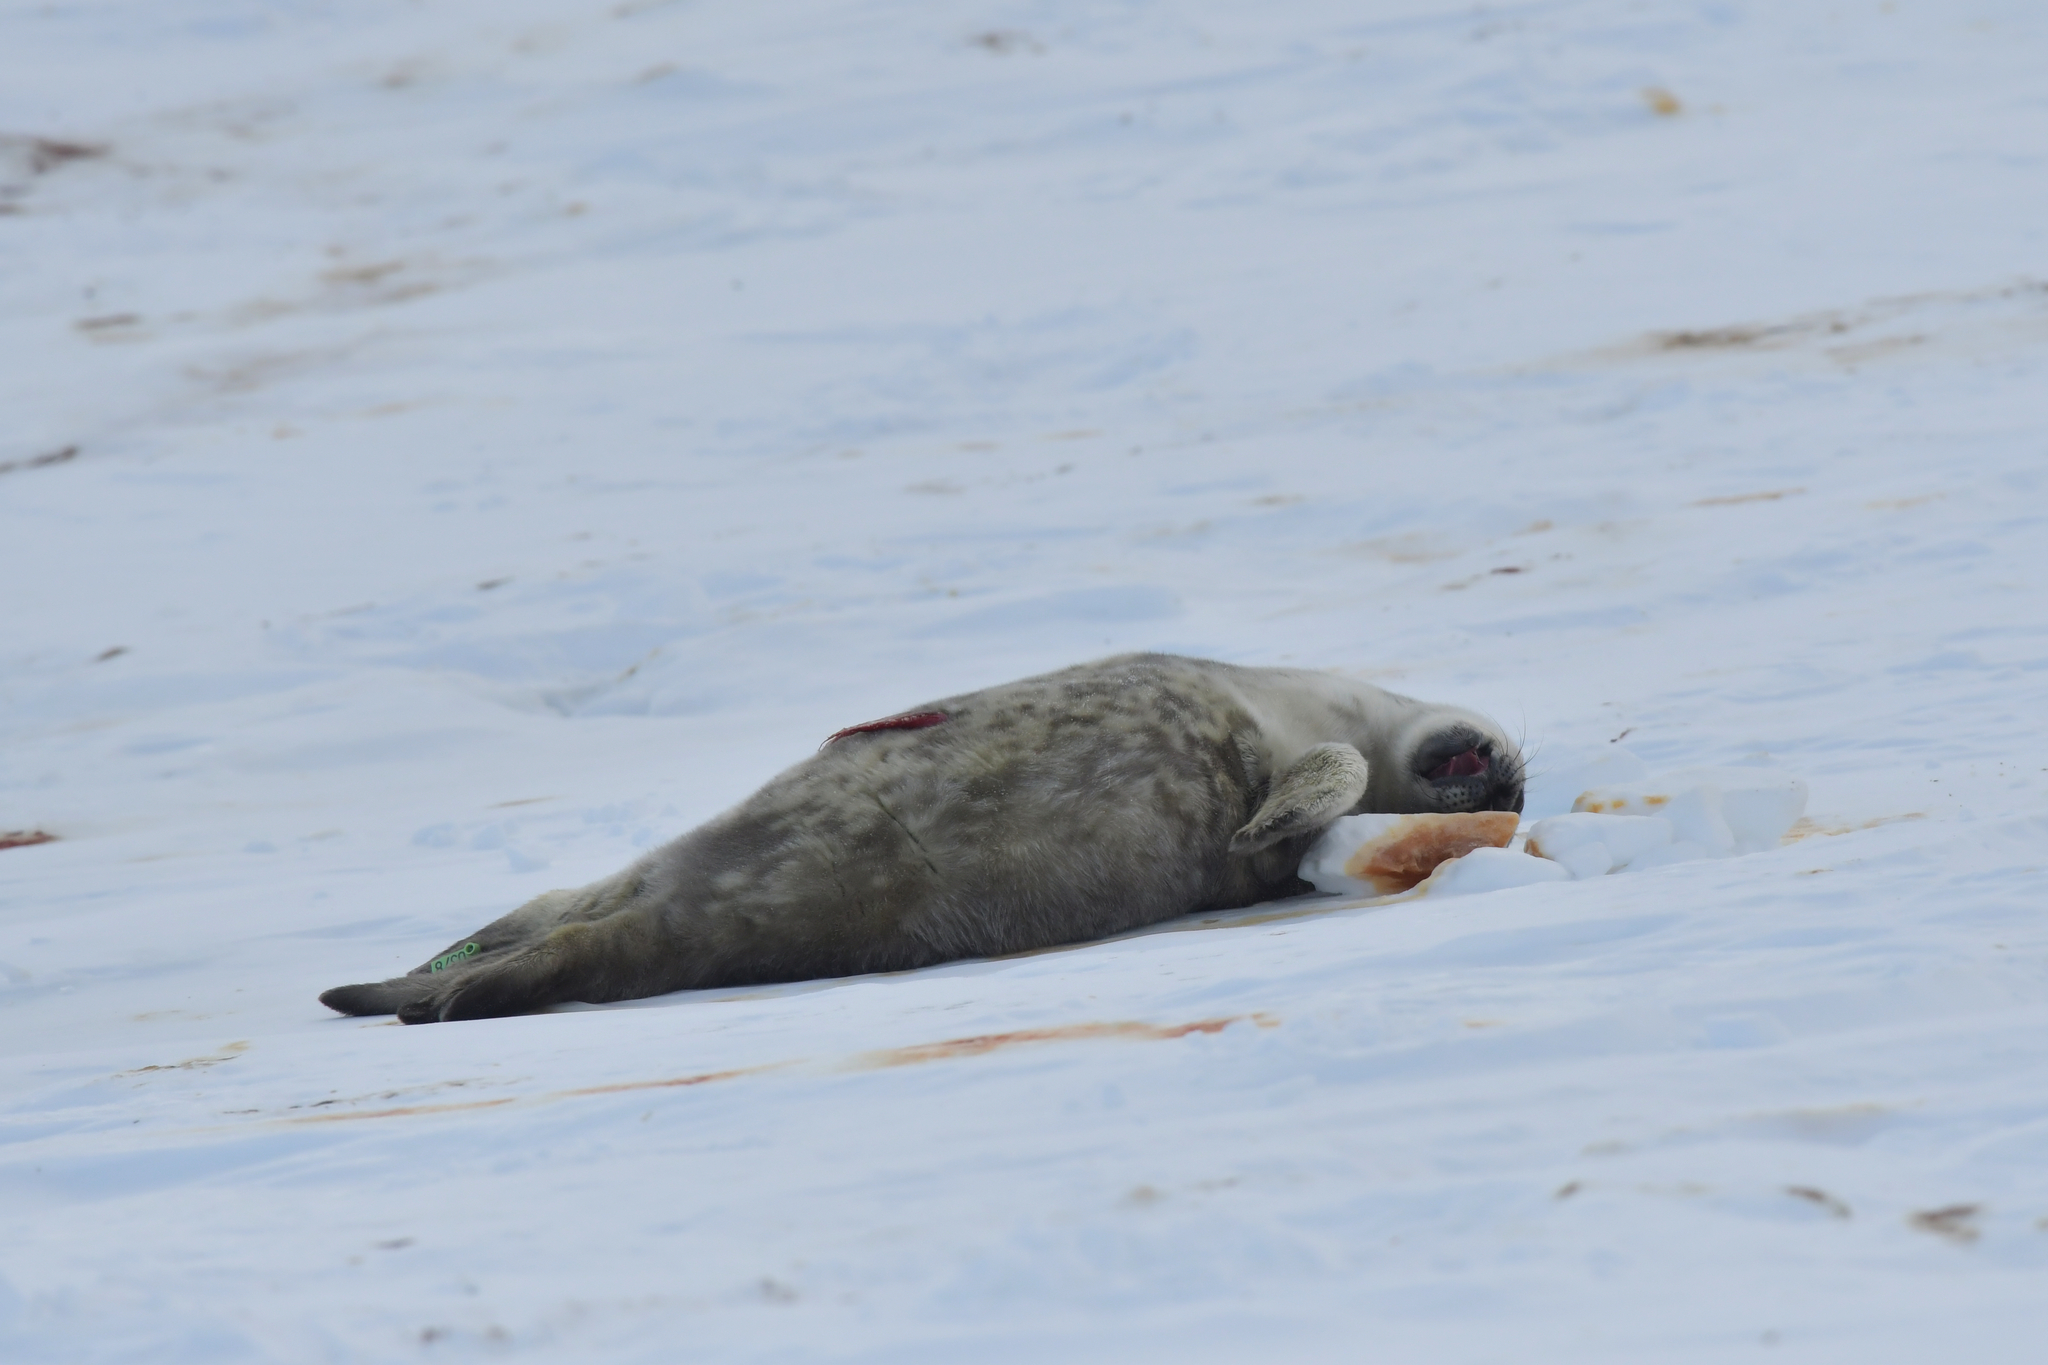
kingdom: Animalia
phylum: Chordata
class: Mammalia
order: Carnivora
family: Phocidae
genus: Leptonychotes
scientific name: Leptonychotes weddellii
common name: Weddell seal
